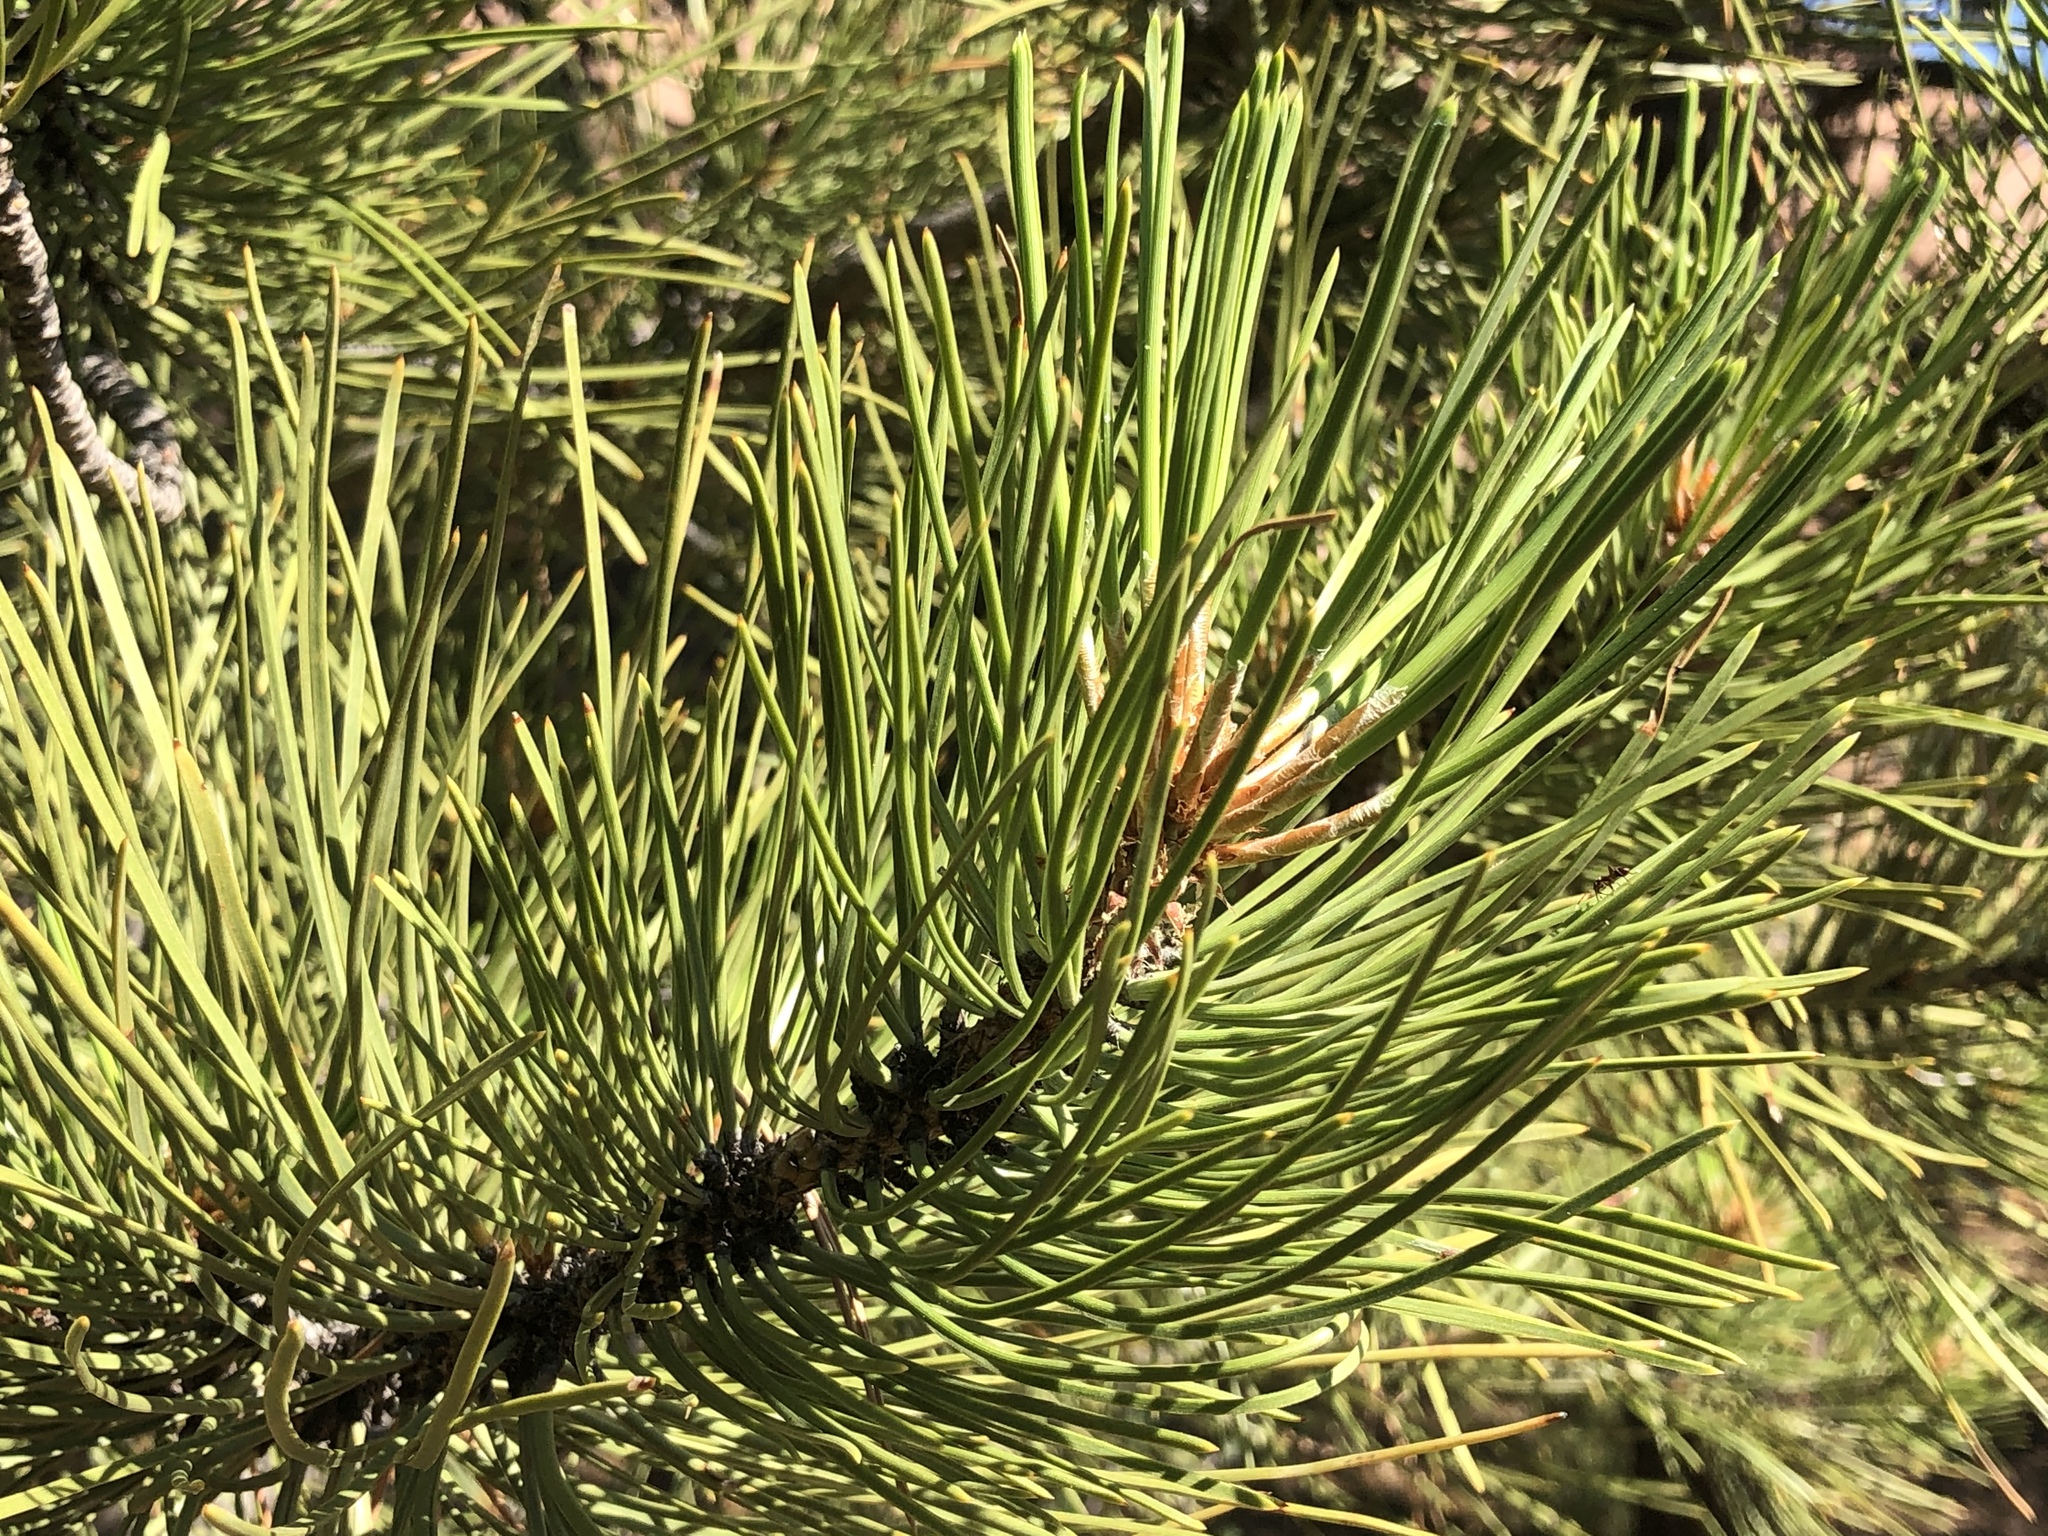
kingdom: Plantae
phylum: Tracheophyta
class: Pinopsida
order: Pinales
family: Pinaceae
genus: Pinus
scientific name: Pinus ponderosa
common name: Western yellow-pine
